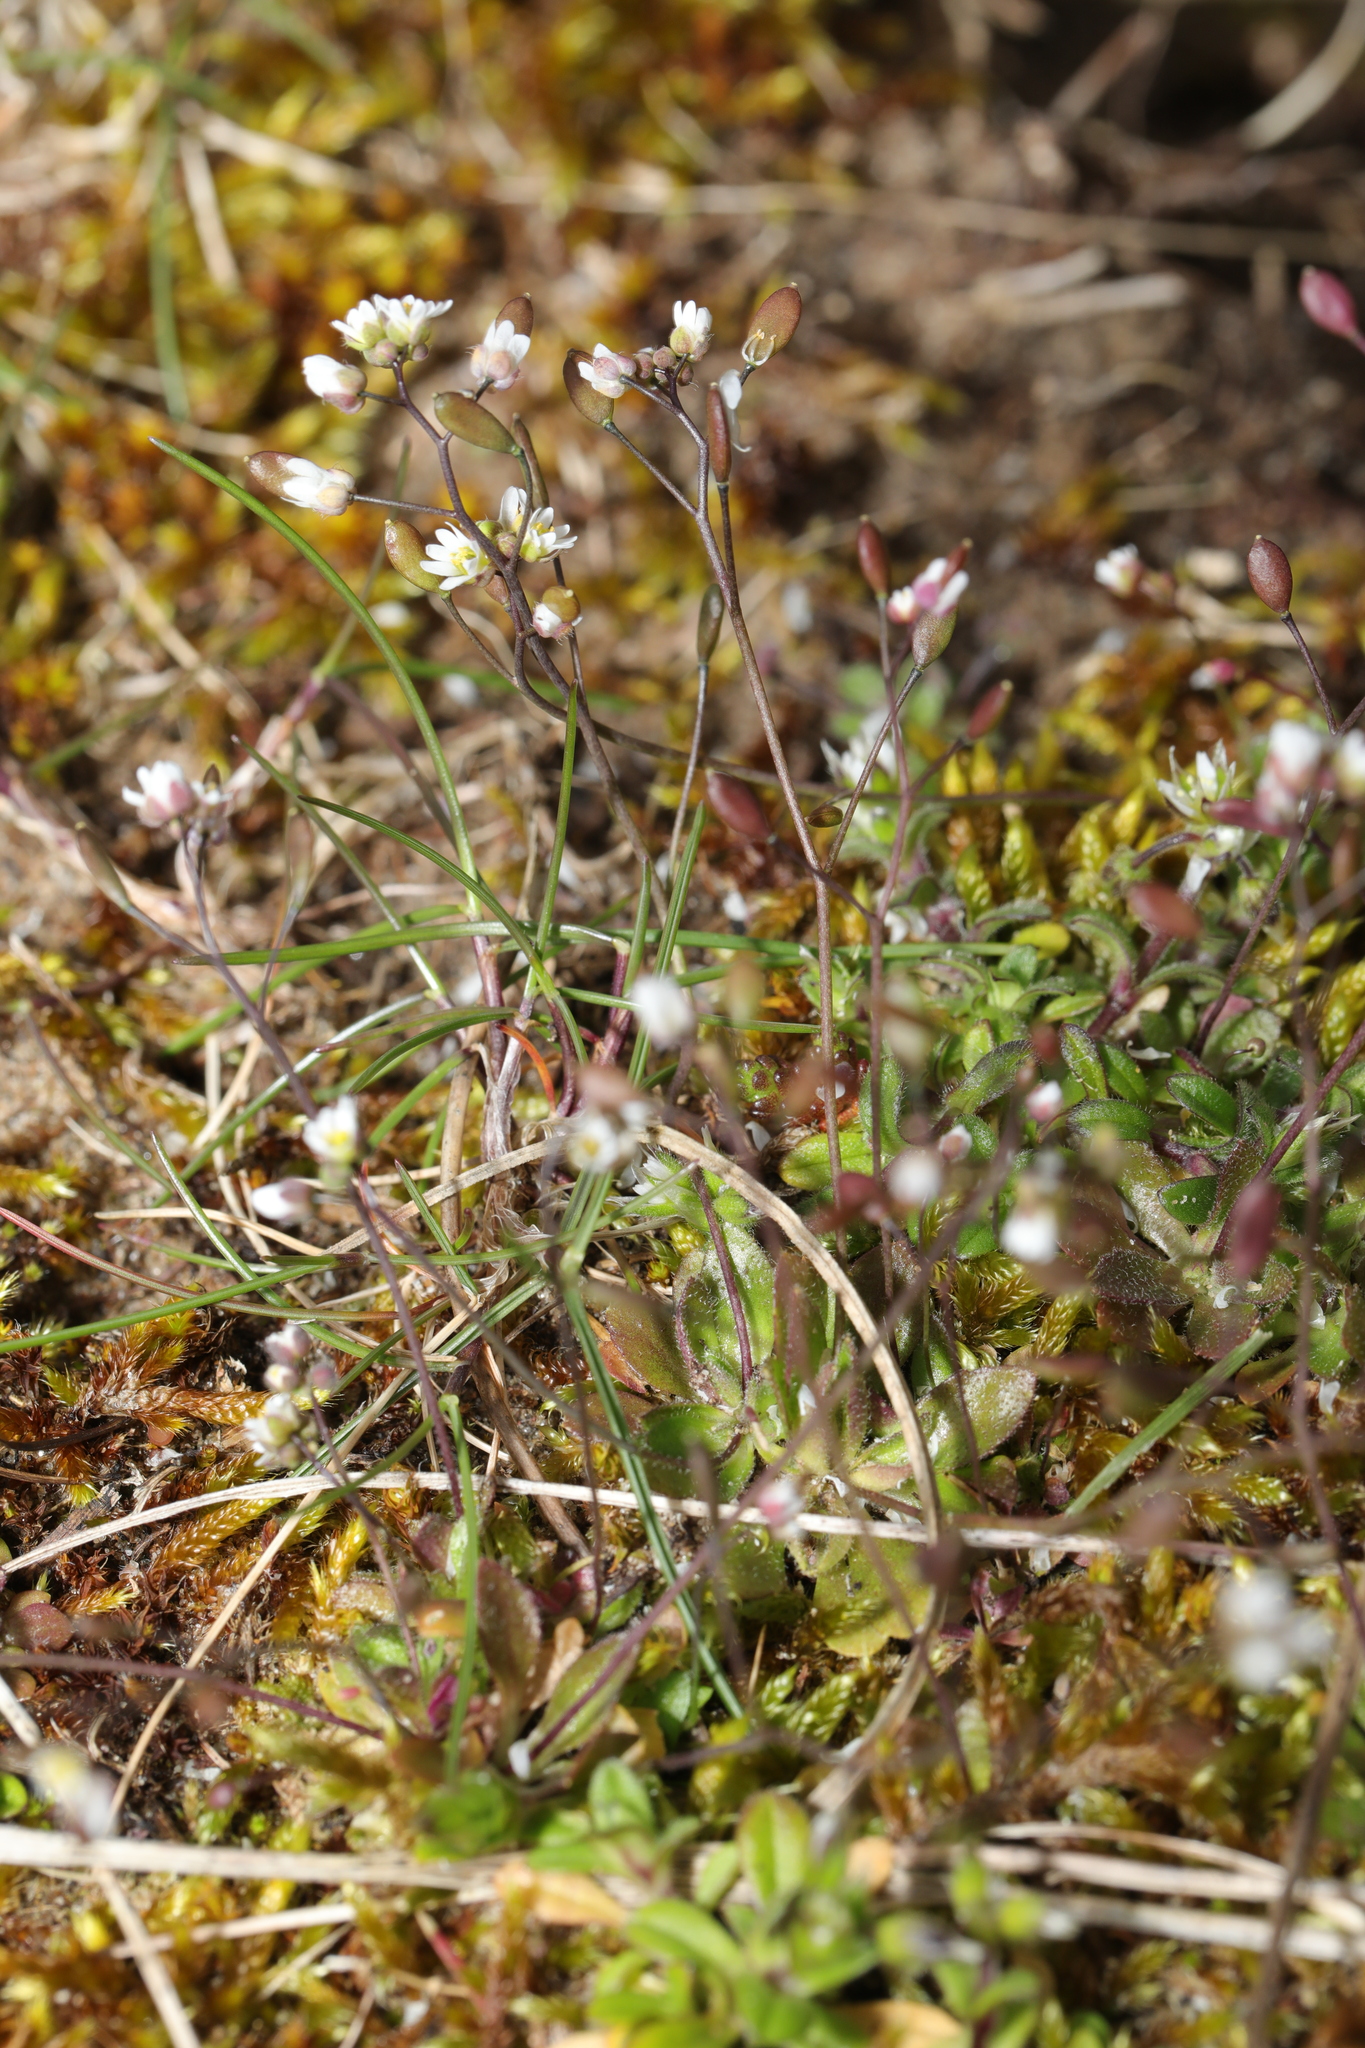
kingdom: Plantae
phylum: Tracheophyta
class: Magnoliopsida
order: Brassicales
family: Brassicaceae
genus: Draba
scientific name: Draba verna
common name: Spring draba
